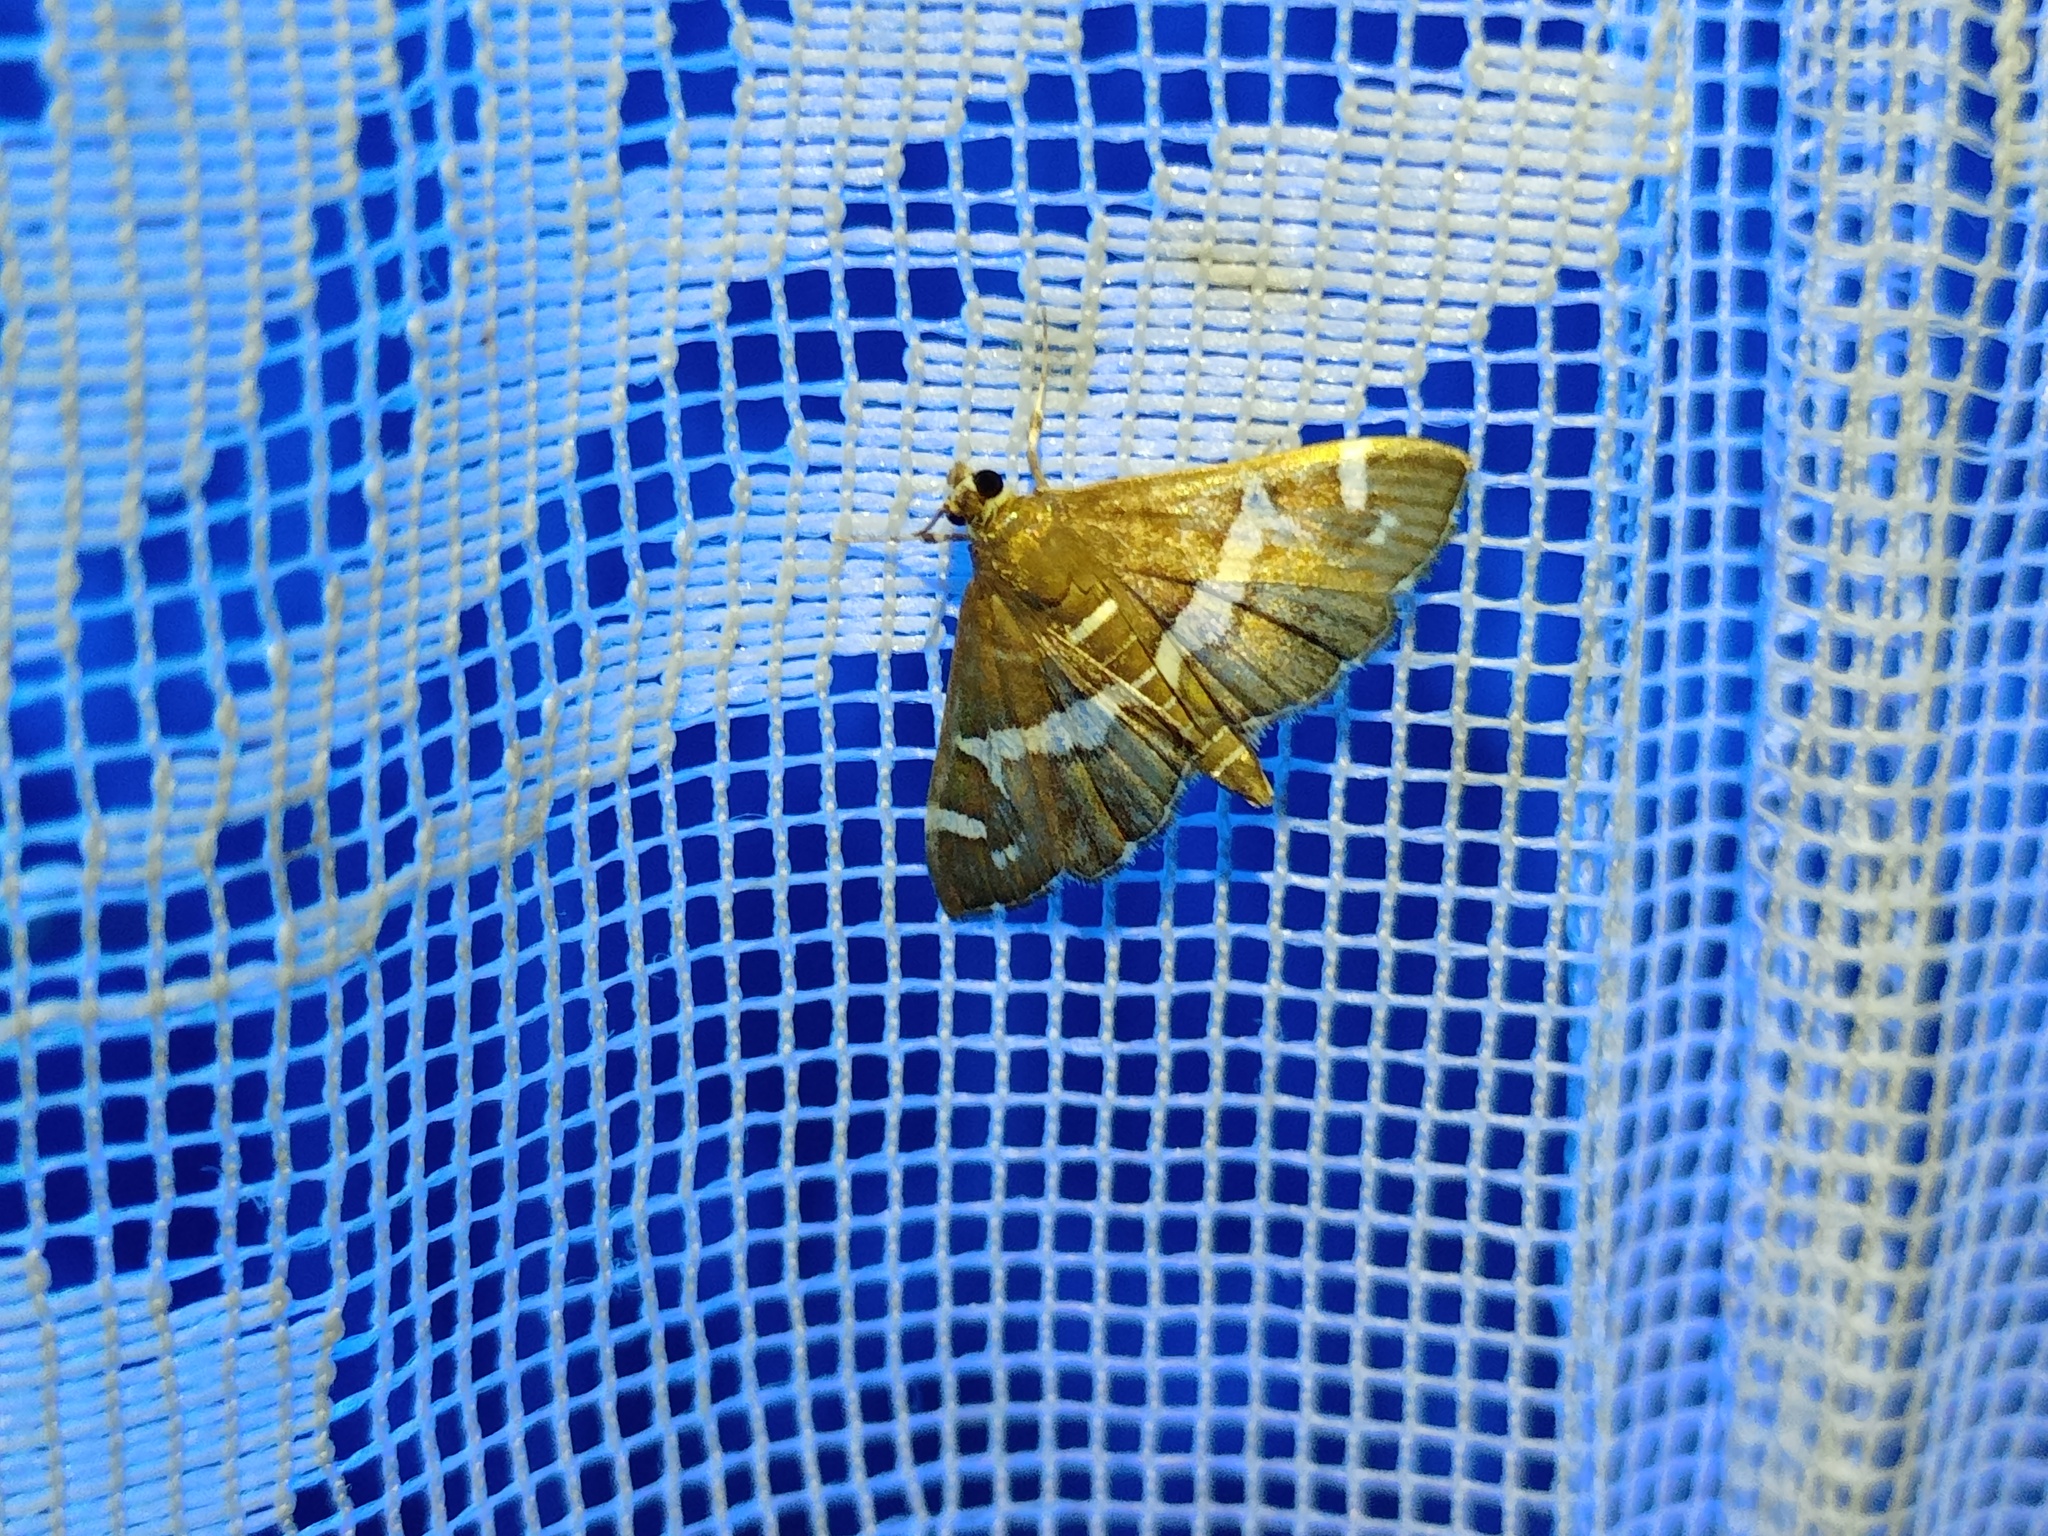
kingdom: Animalia
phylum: Arthropoda
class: Insecta
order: Lepidoptera
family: Crambidae
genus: Spoladea
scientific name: Spoladea recurvalis
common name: Beet webworm moth
